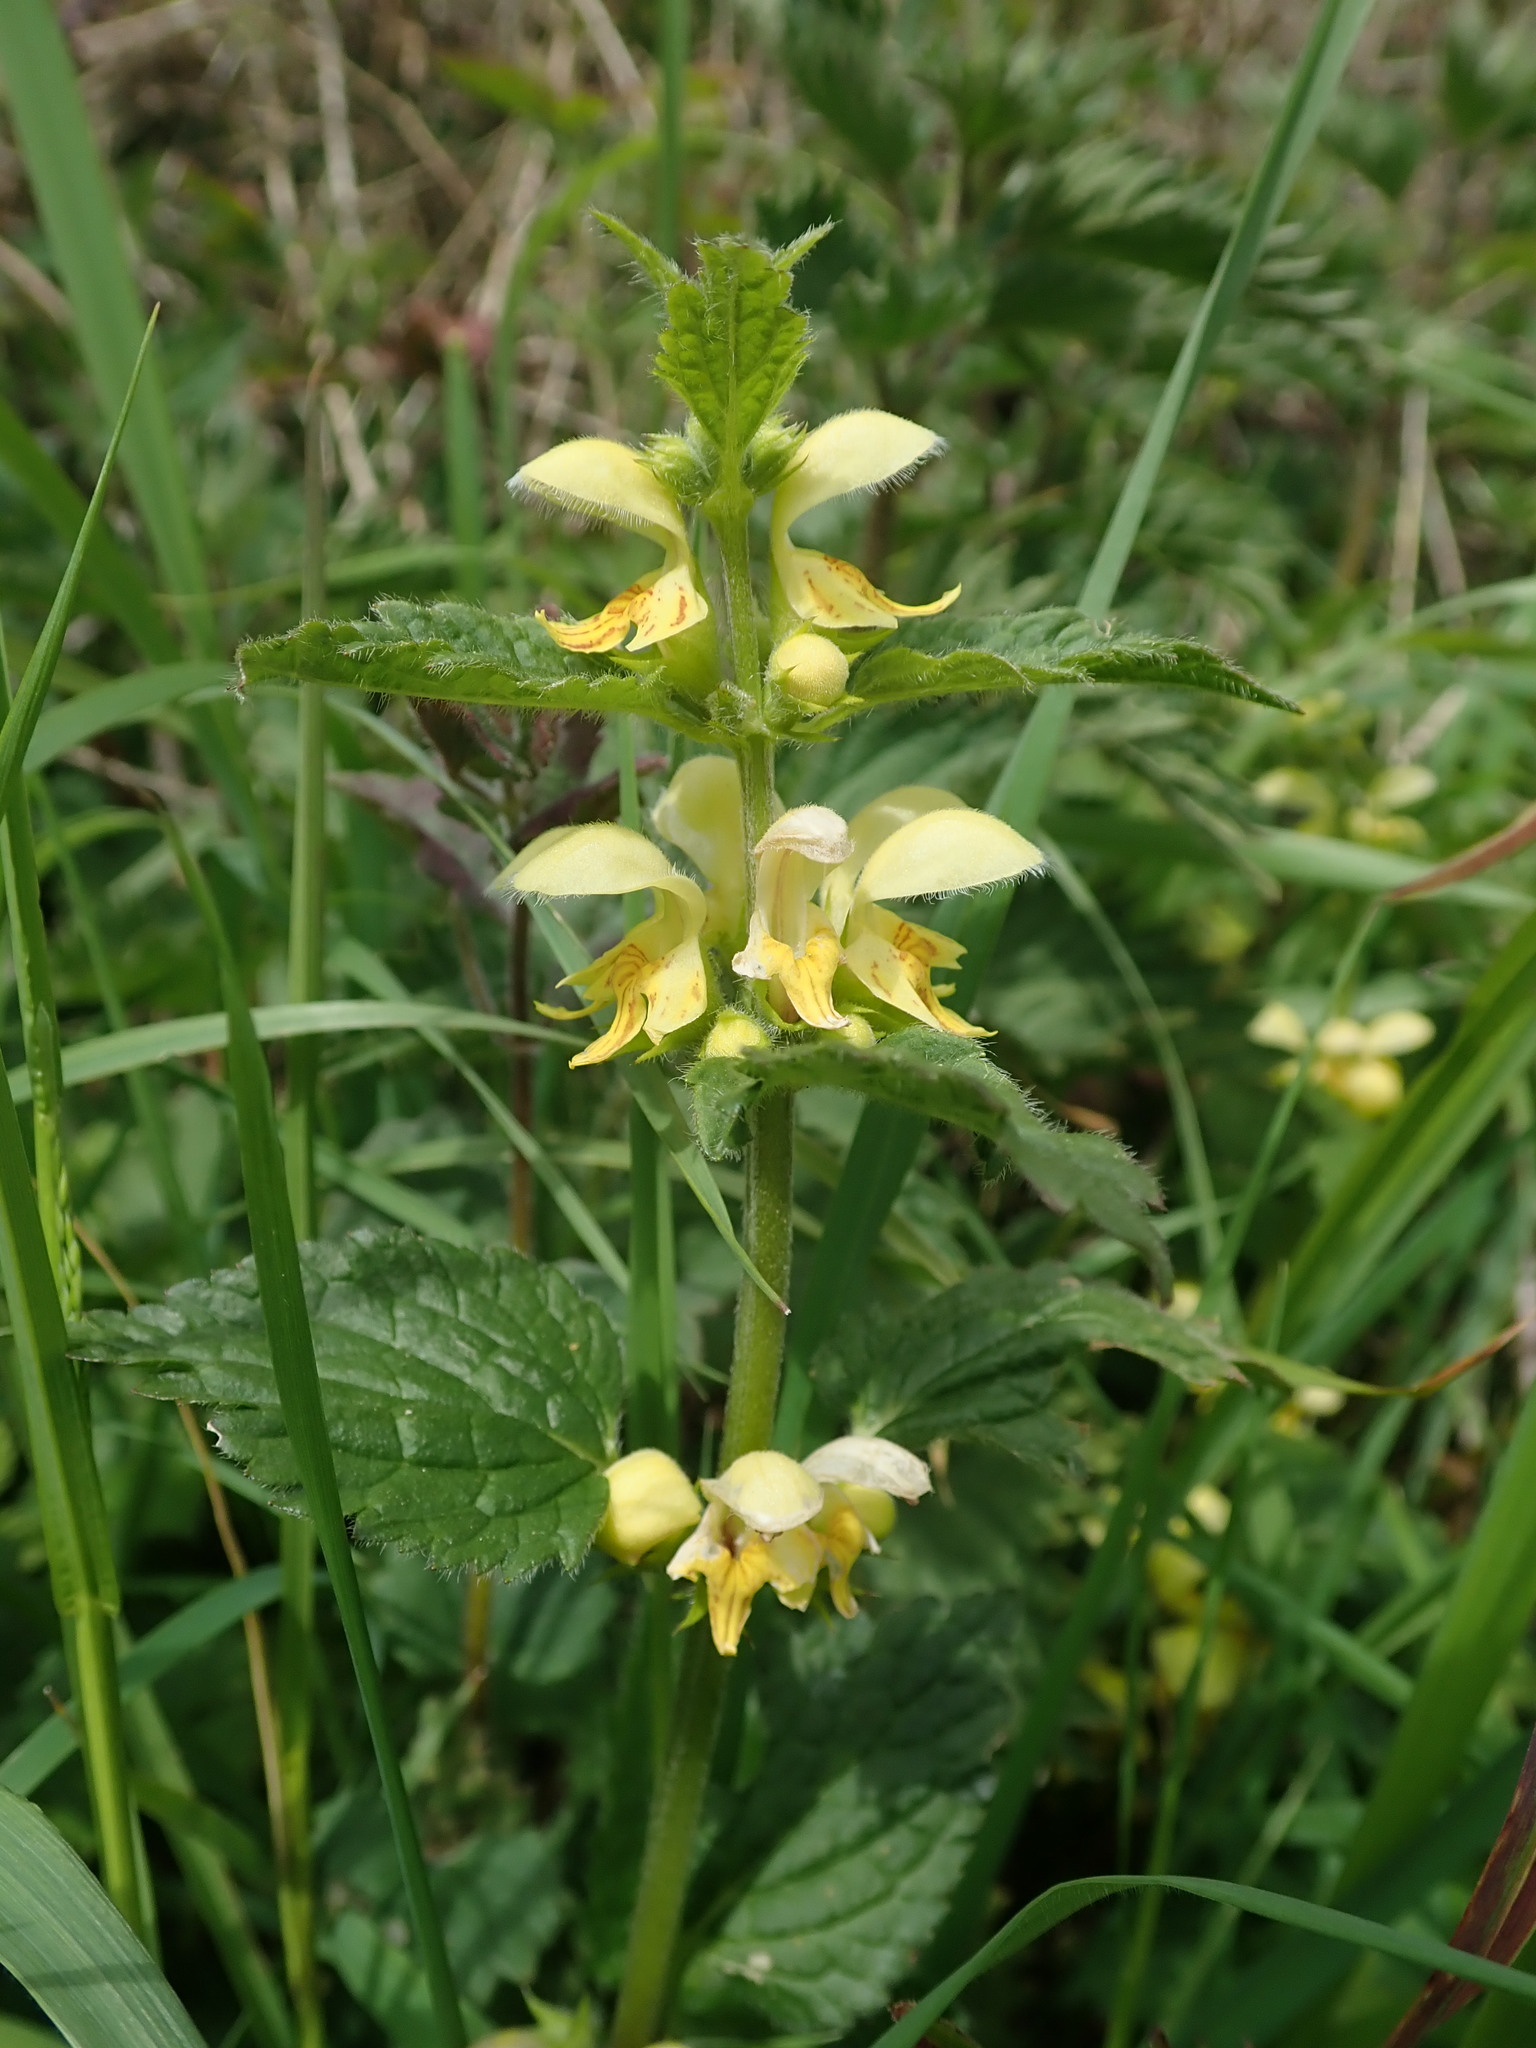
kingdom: Plantae
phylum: Tracheophyta
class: Magnoliopsida
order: Lamiales
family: Lamiaceae
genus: Lamium
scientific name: Lamium galeobdolon
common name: Yellow archangel
